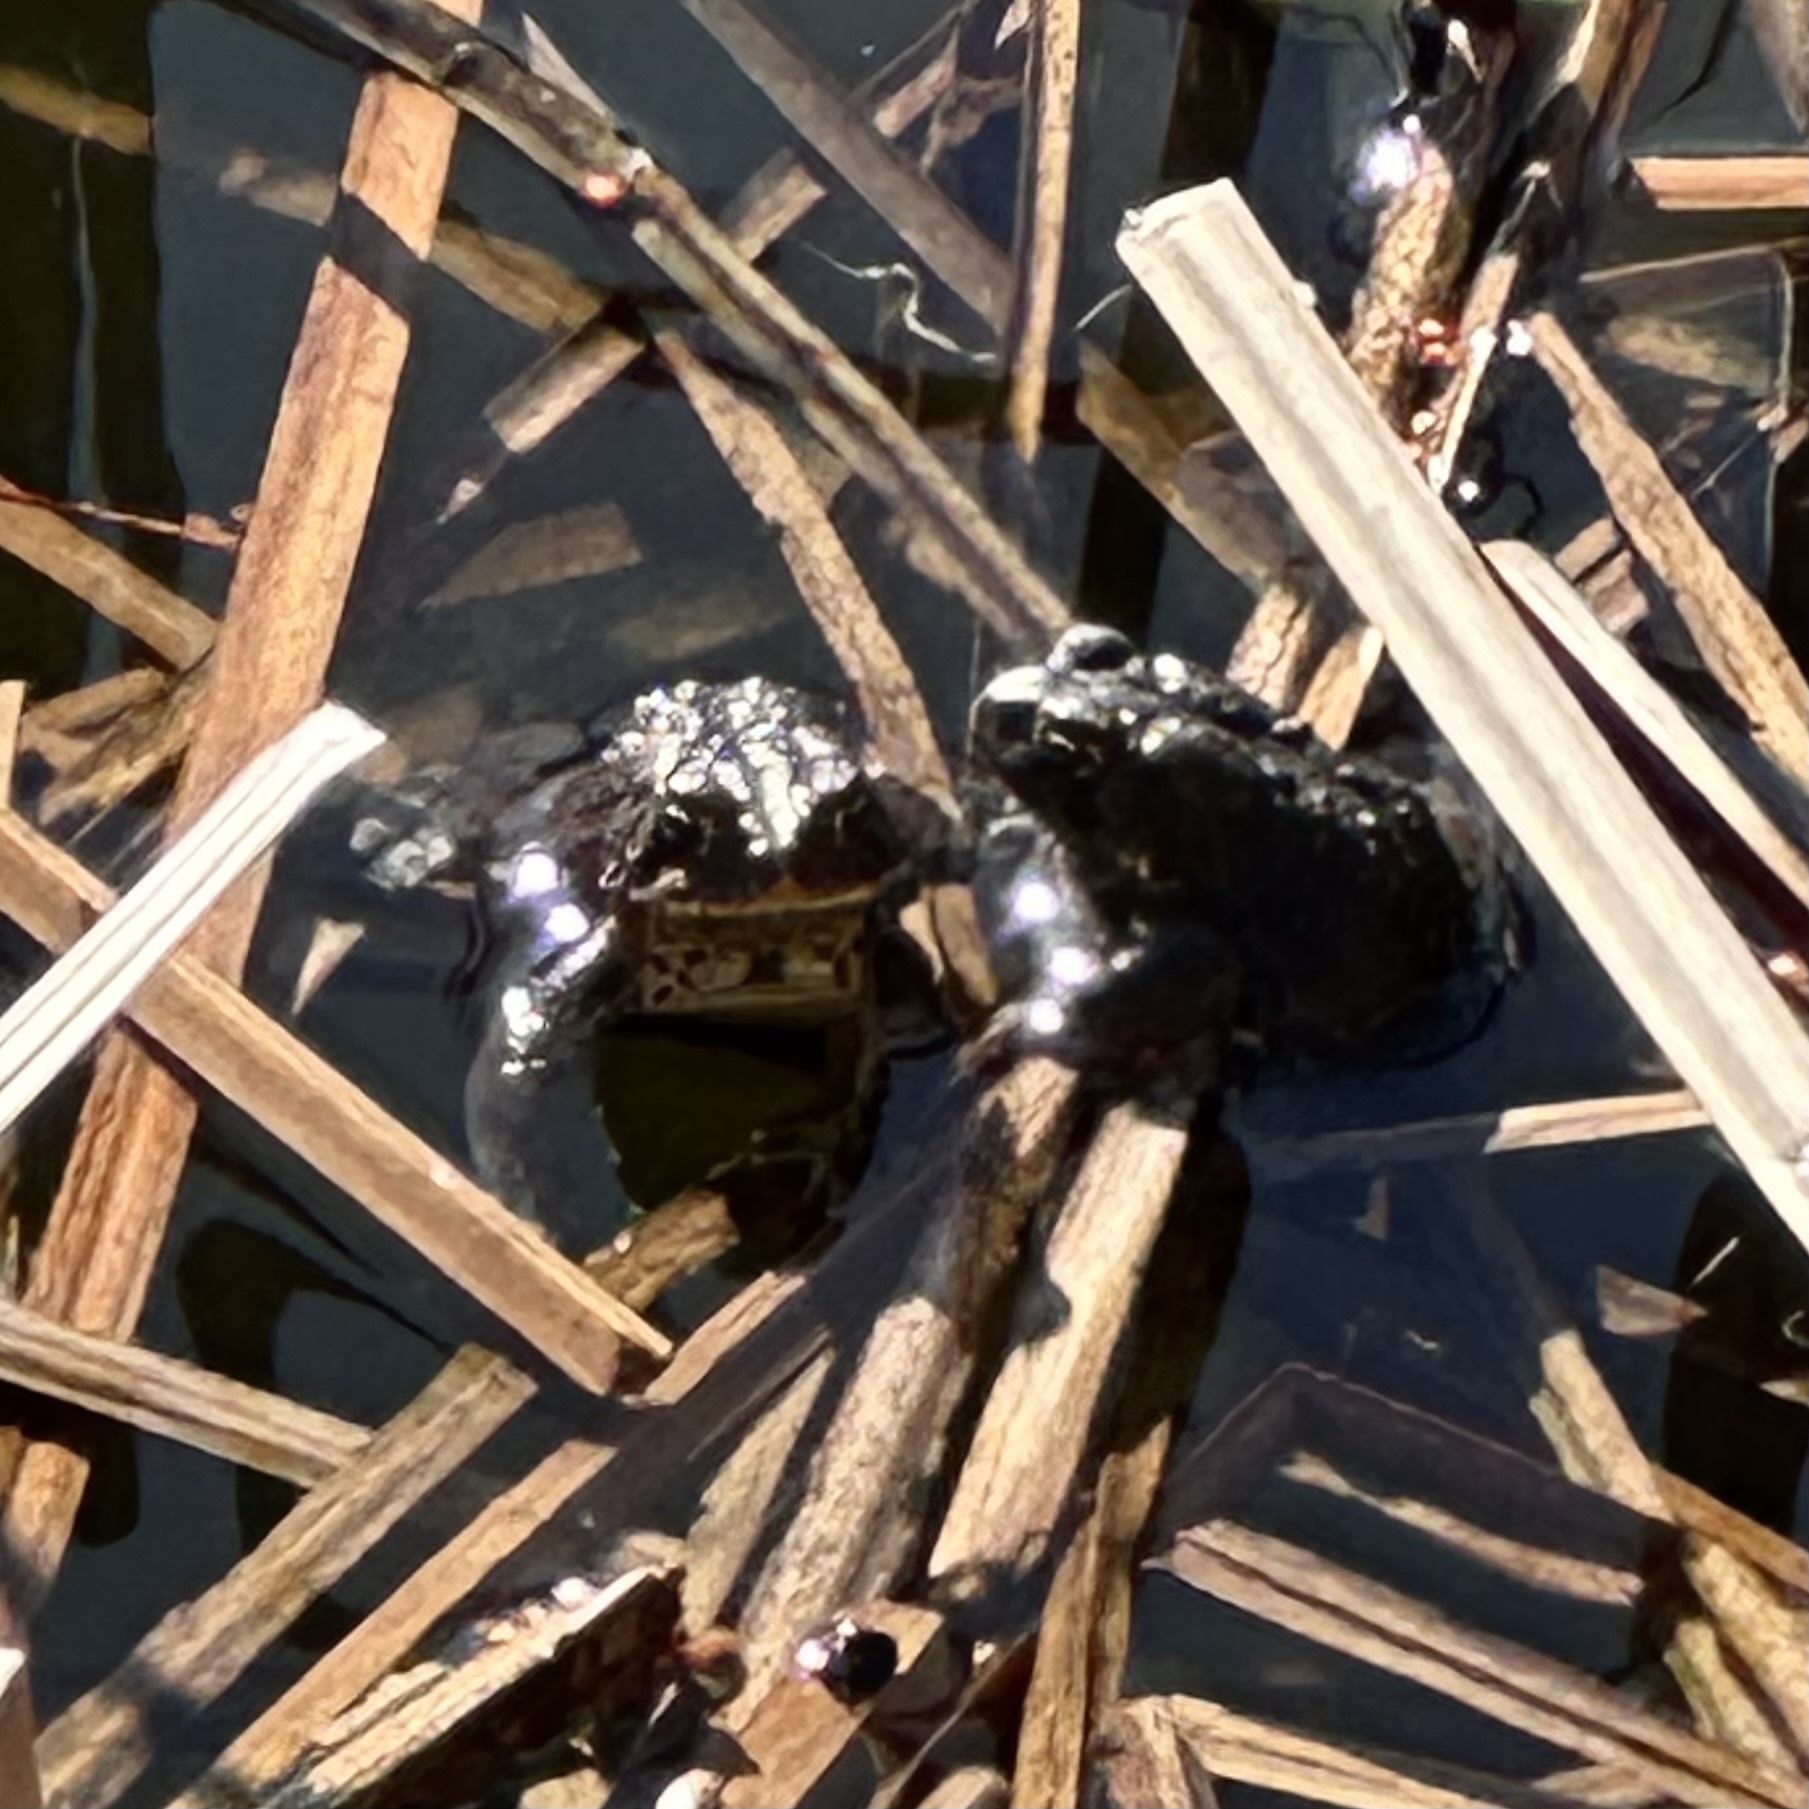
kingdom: Animalia
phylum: Chordata
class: Amphibia
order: Anura
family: Bufonidae
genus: Anaxyrus
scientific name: Anaxyrus americanus
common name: American toad
